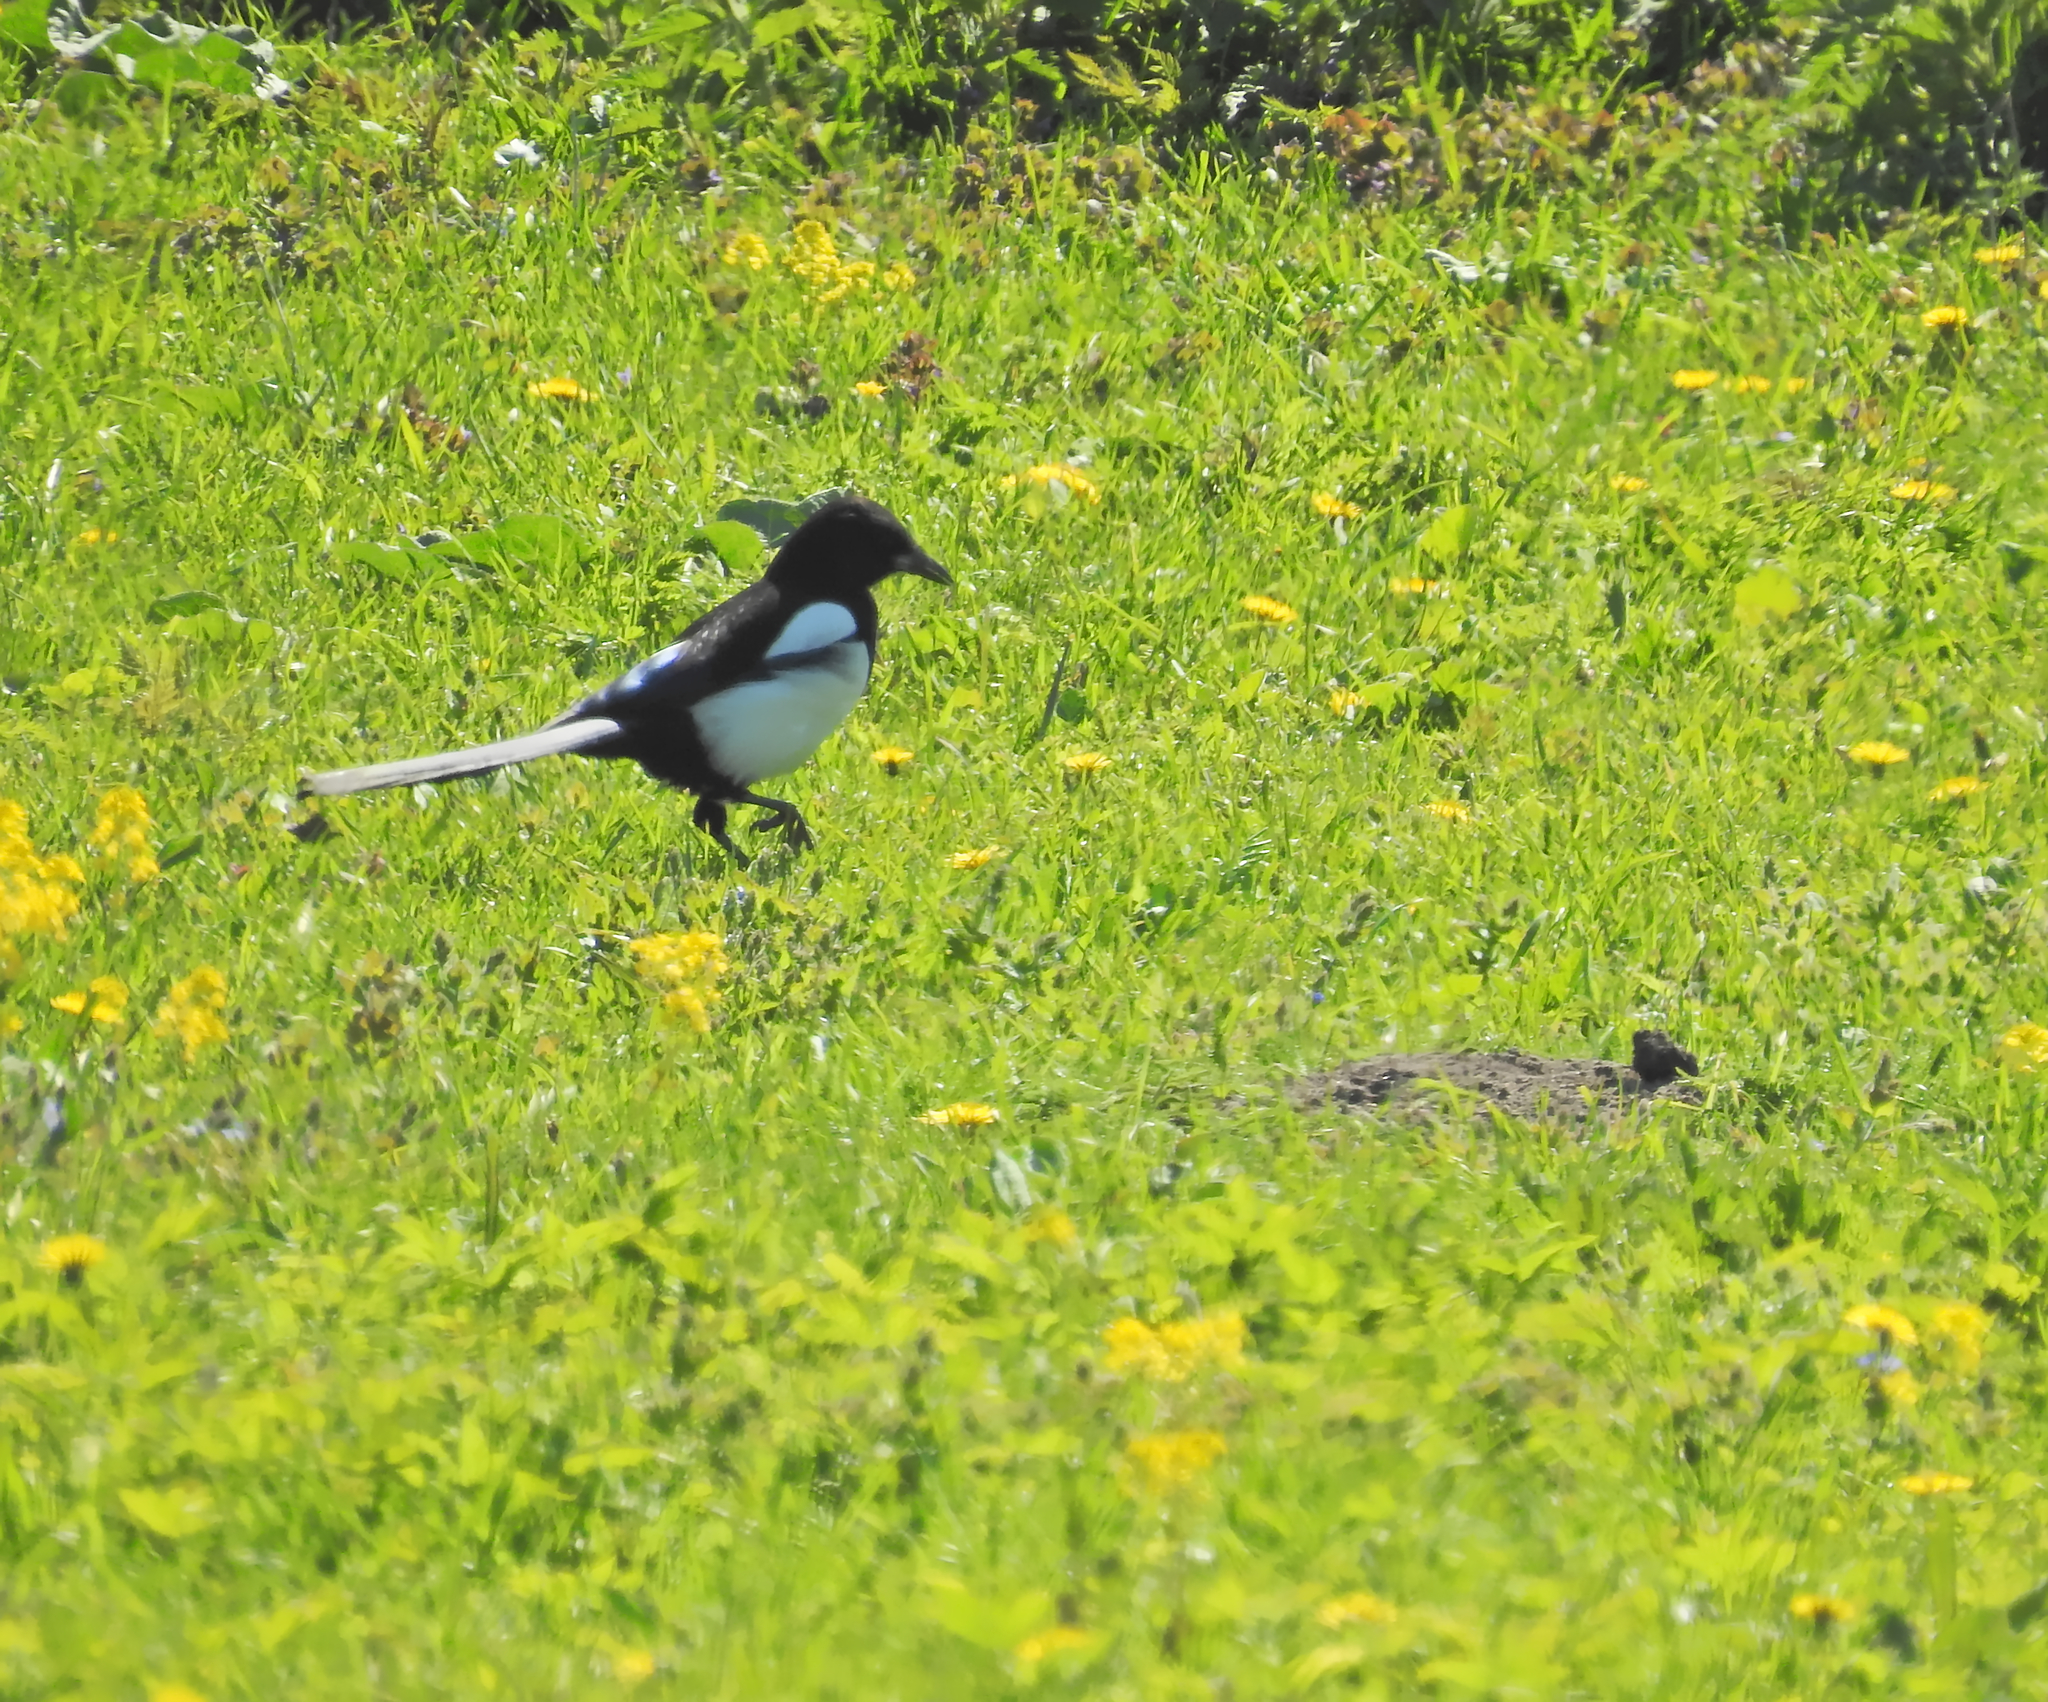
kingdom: Animalia
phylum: Chordata
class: Aves
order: Passeriformes
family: Corvidae
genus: Pica
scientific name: Pica pica
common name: Eurasian magpie
